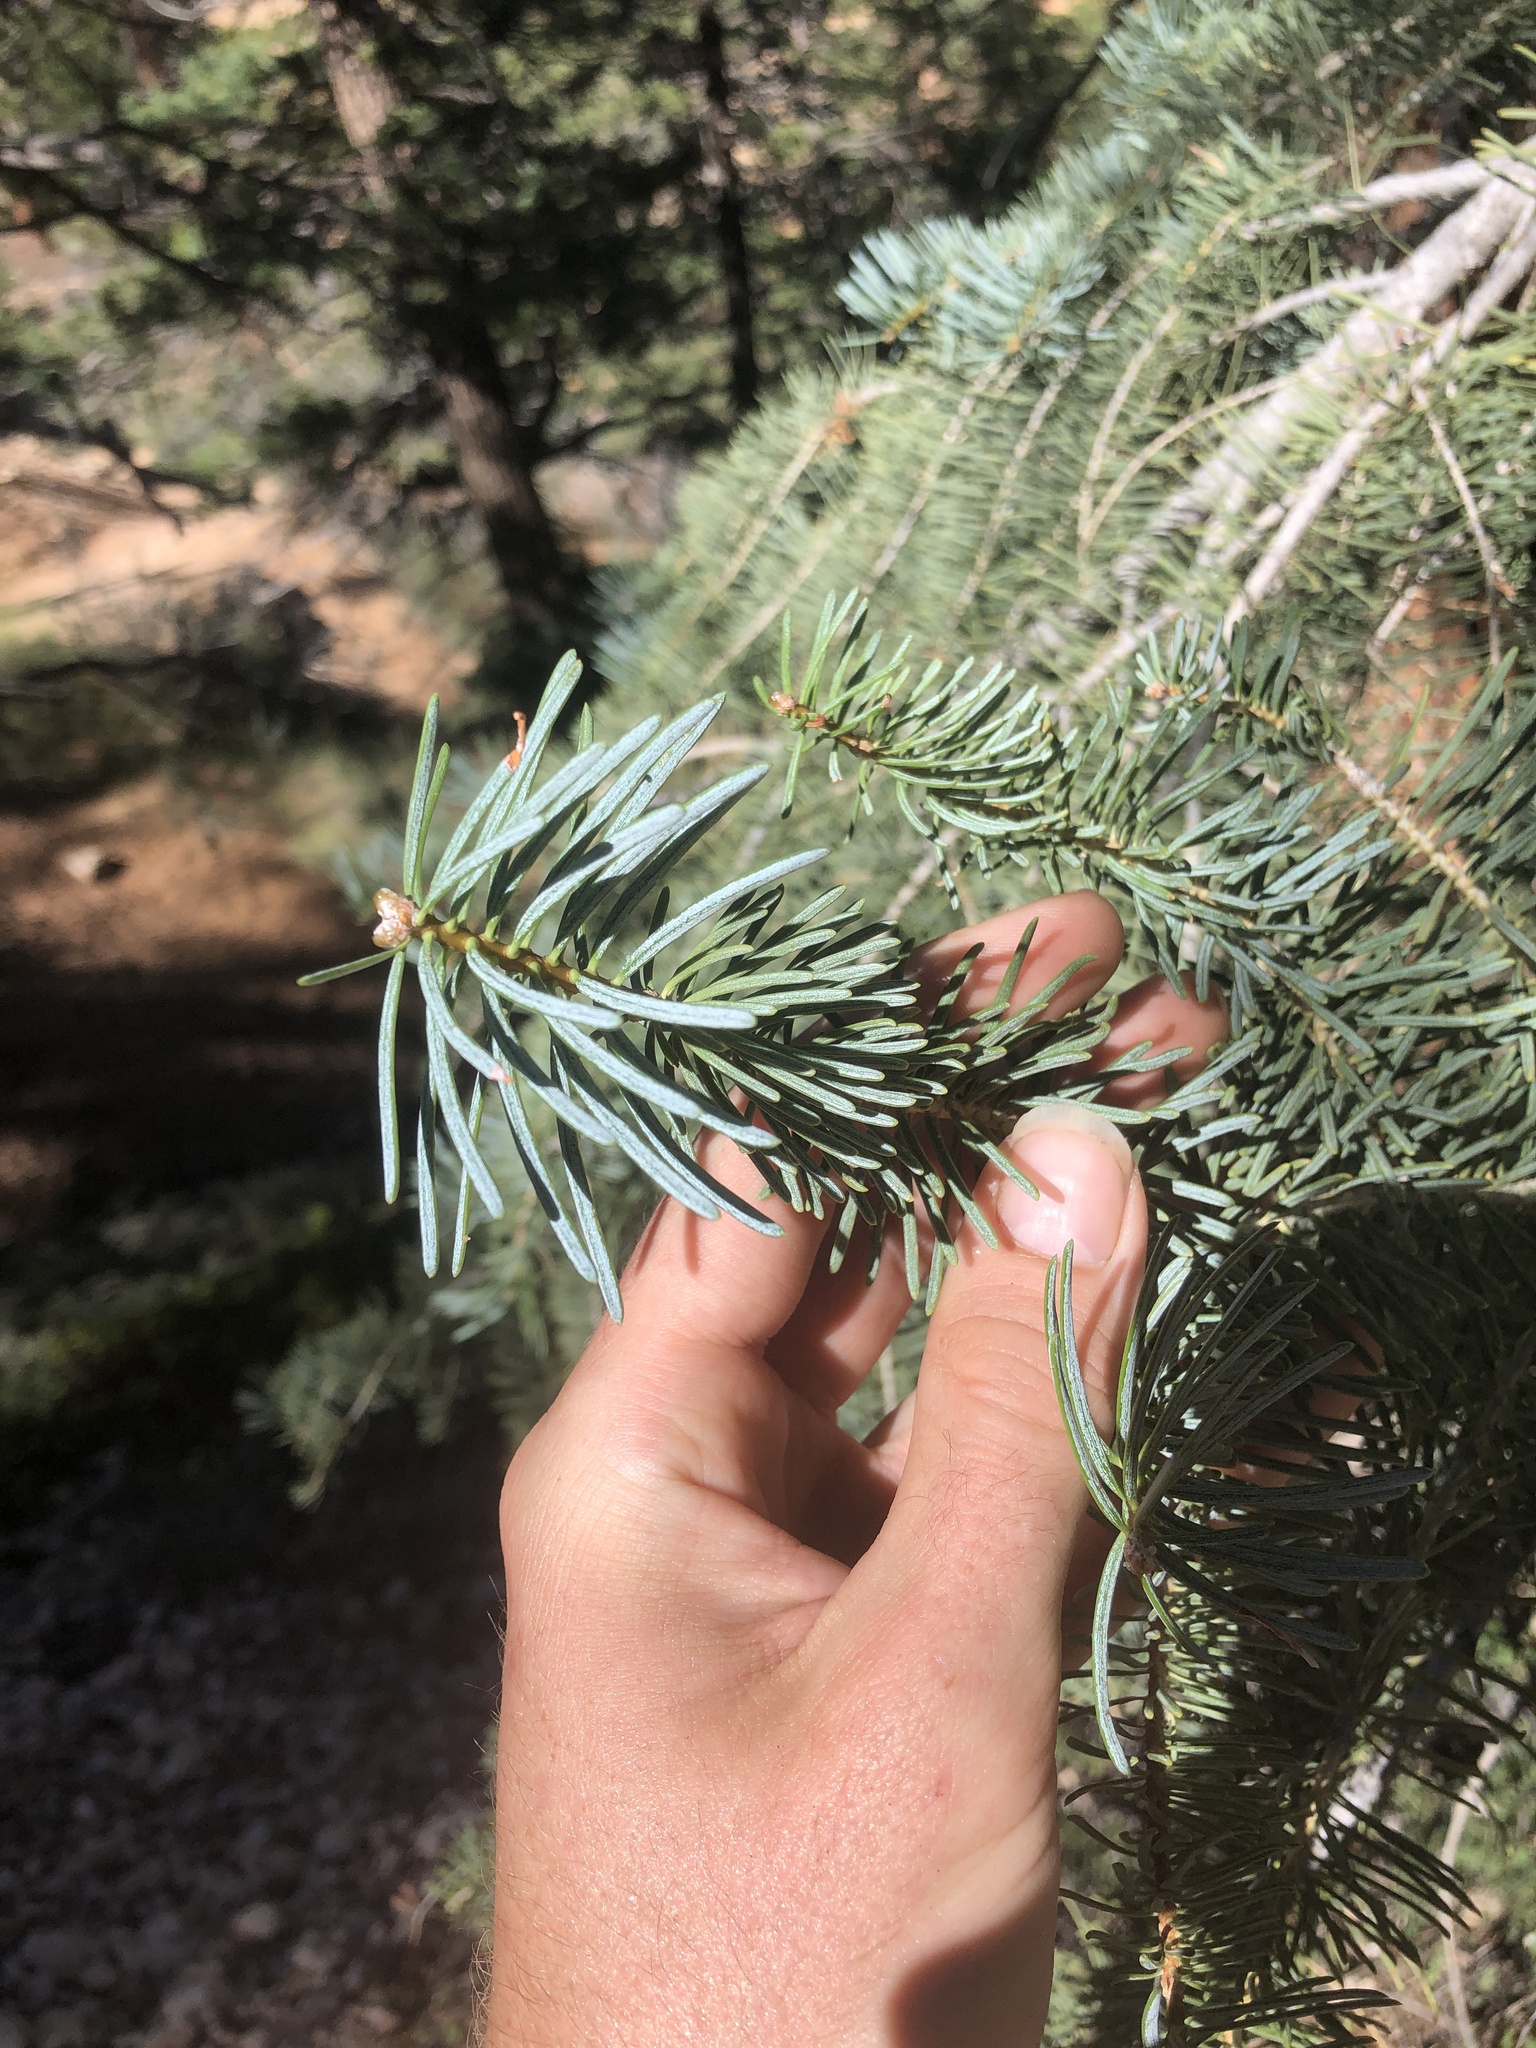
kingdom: Plantae
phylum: Tracheophyta
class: Pinopsida
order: Pinales
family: Pinaceae
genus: Abies
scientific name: Abies concolor
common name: Colorado fir
